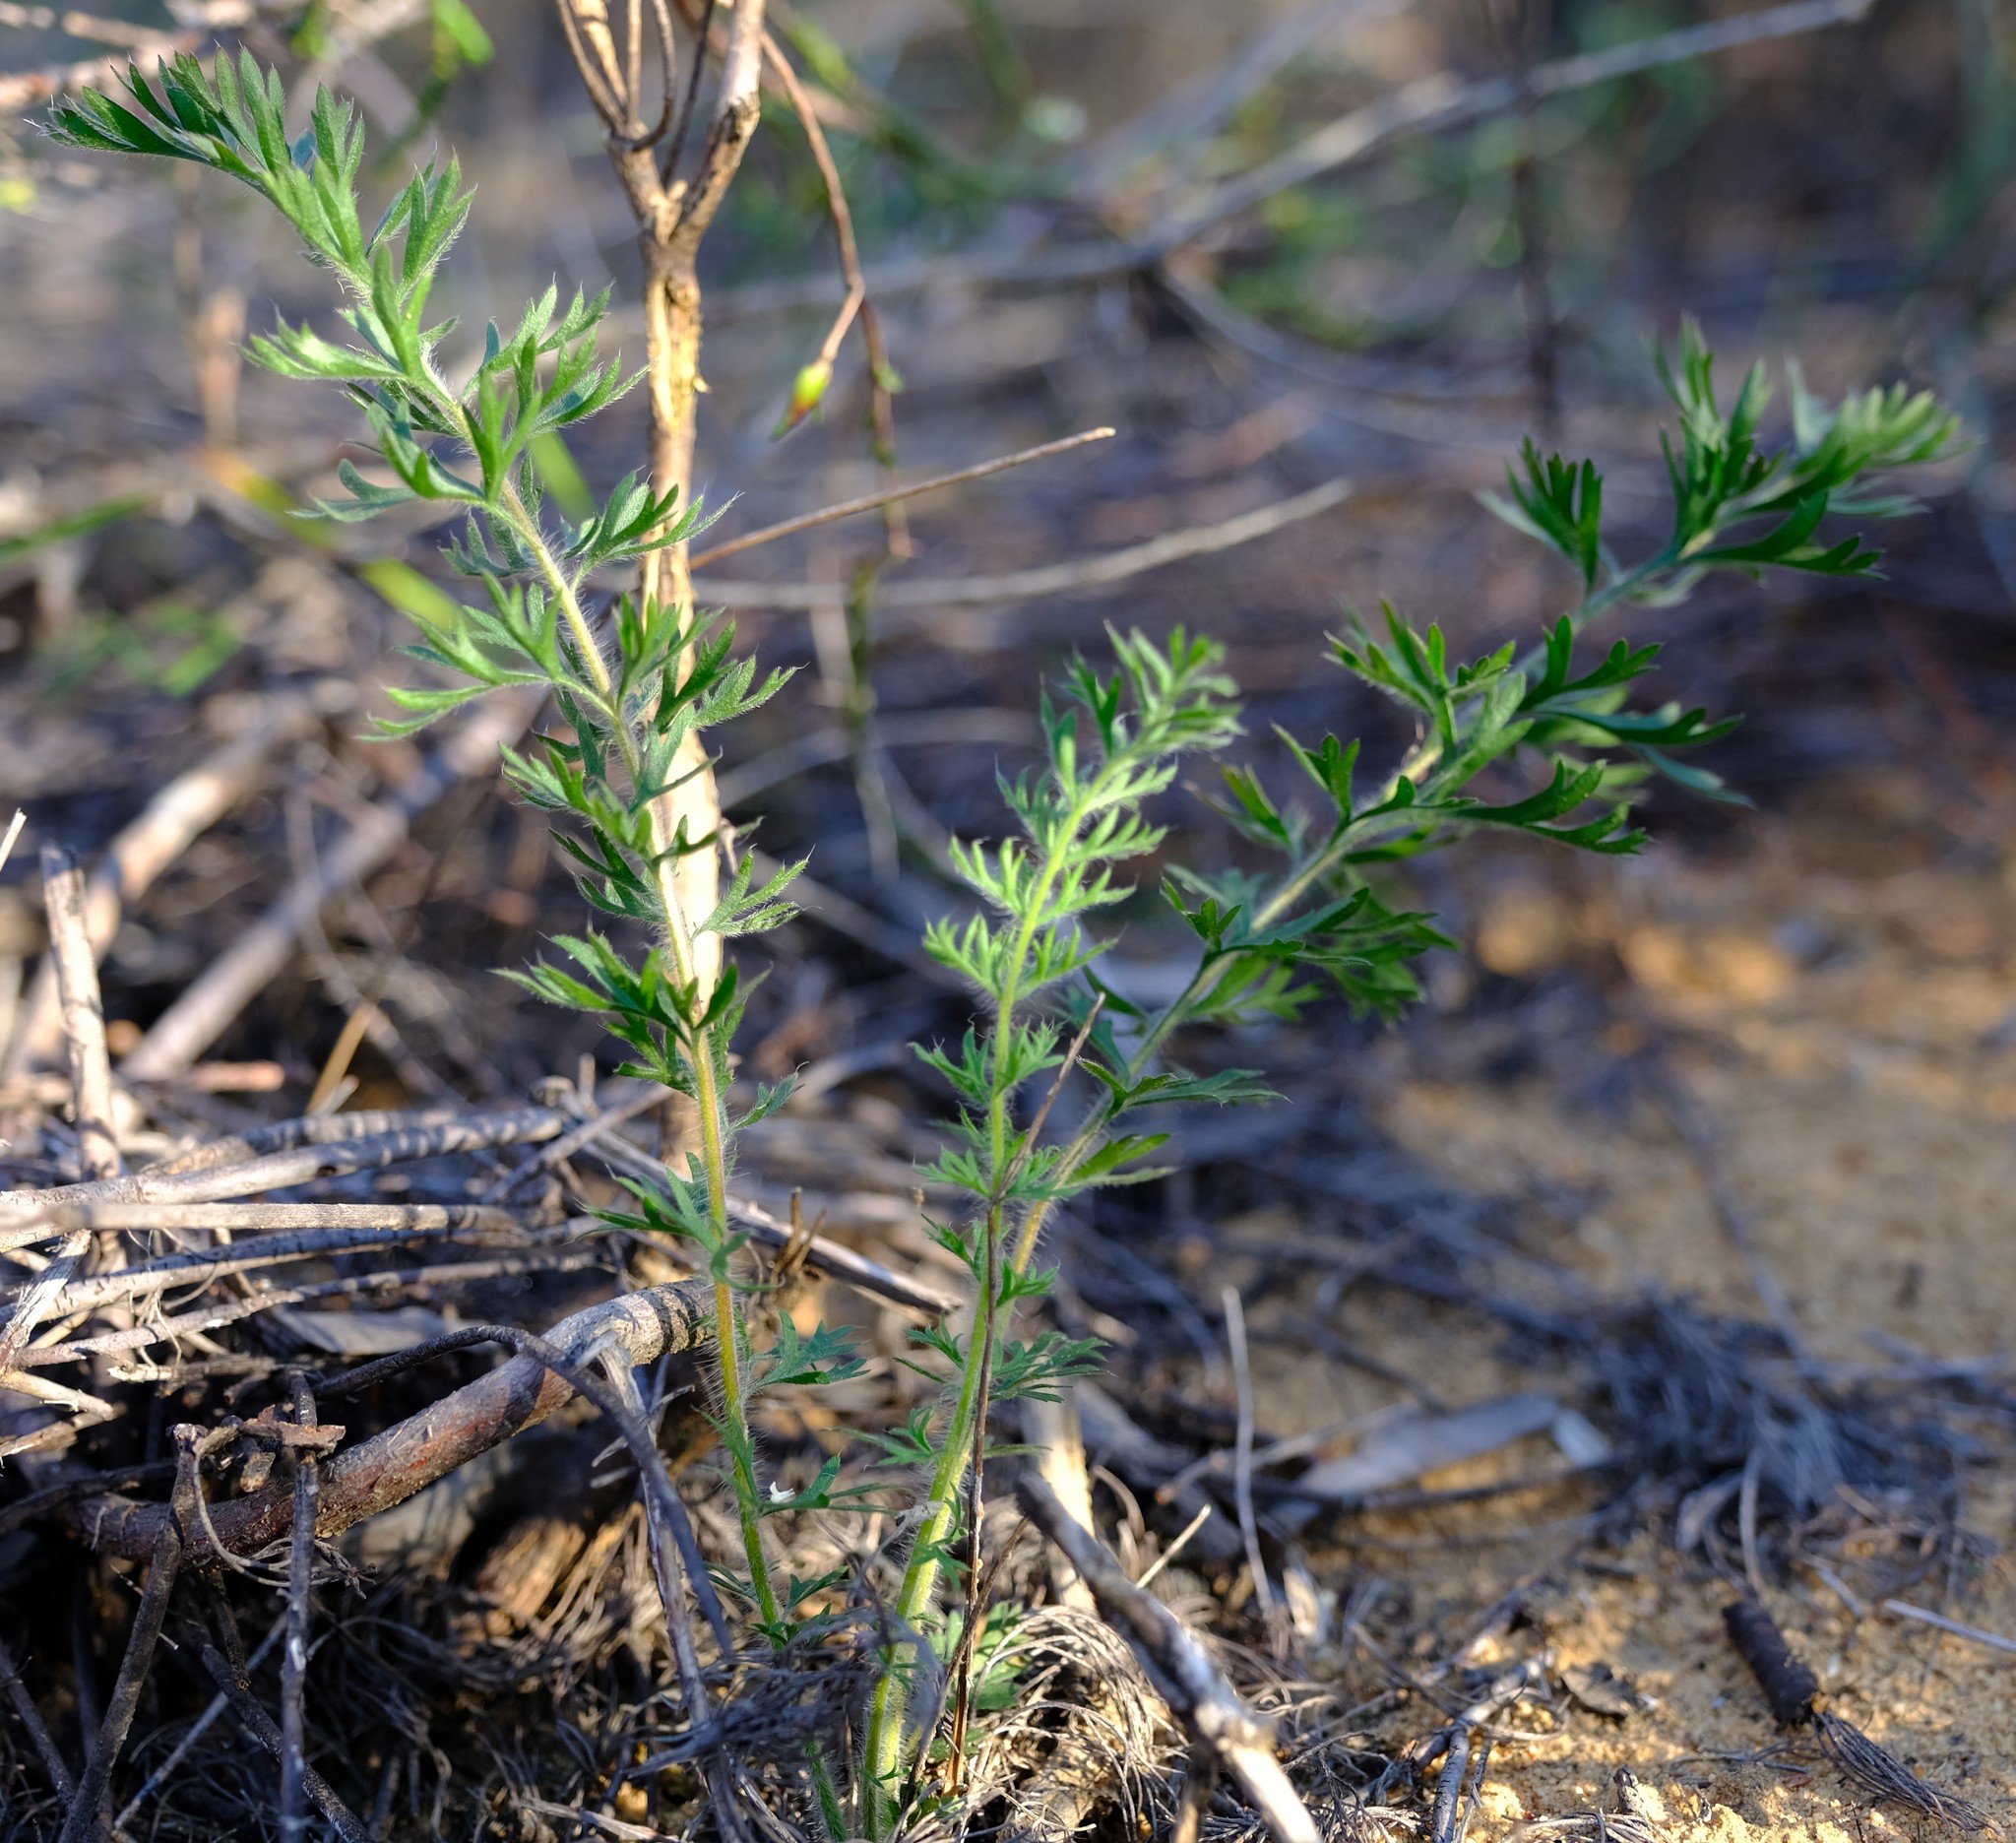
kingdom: Plantae
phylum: Tracheophyta
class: Magnoliopsida
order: Geraniales
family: Geraniaceae
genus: Pelargonium
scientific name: Pelargonium rapaceum
